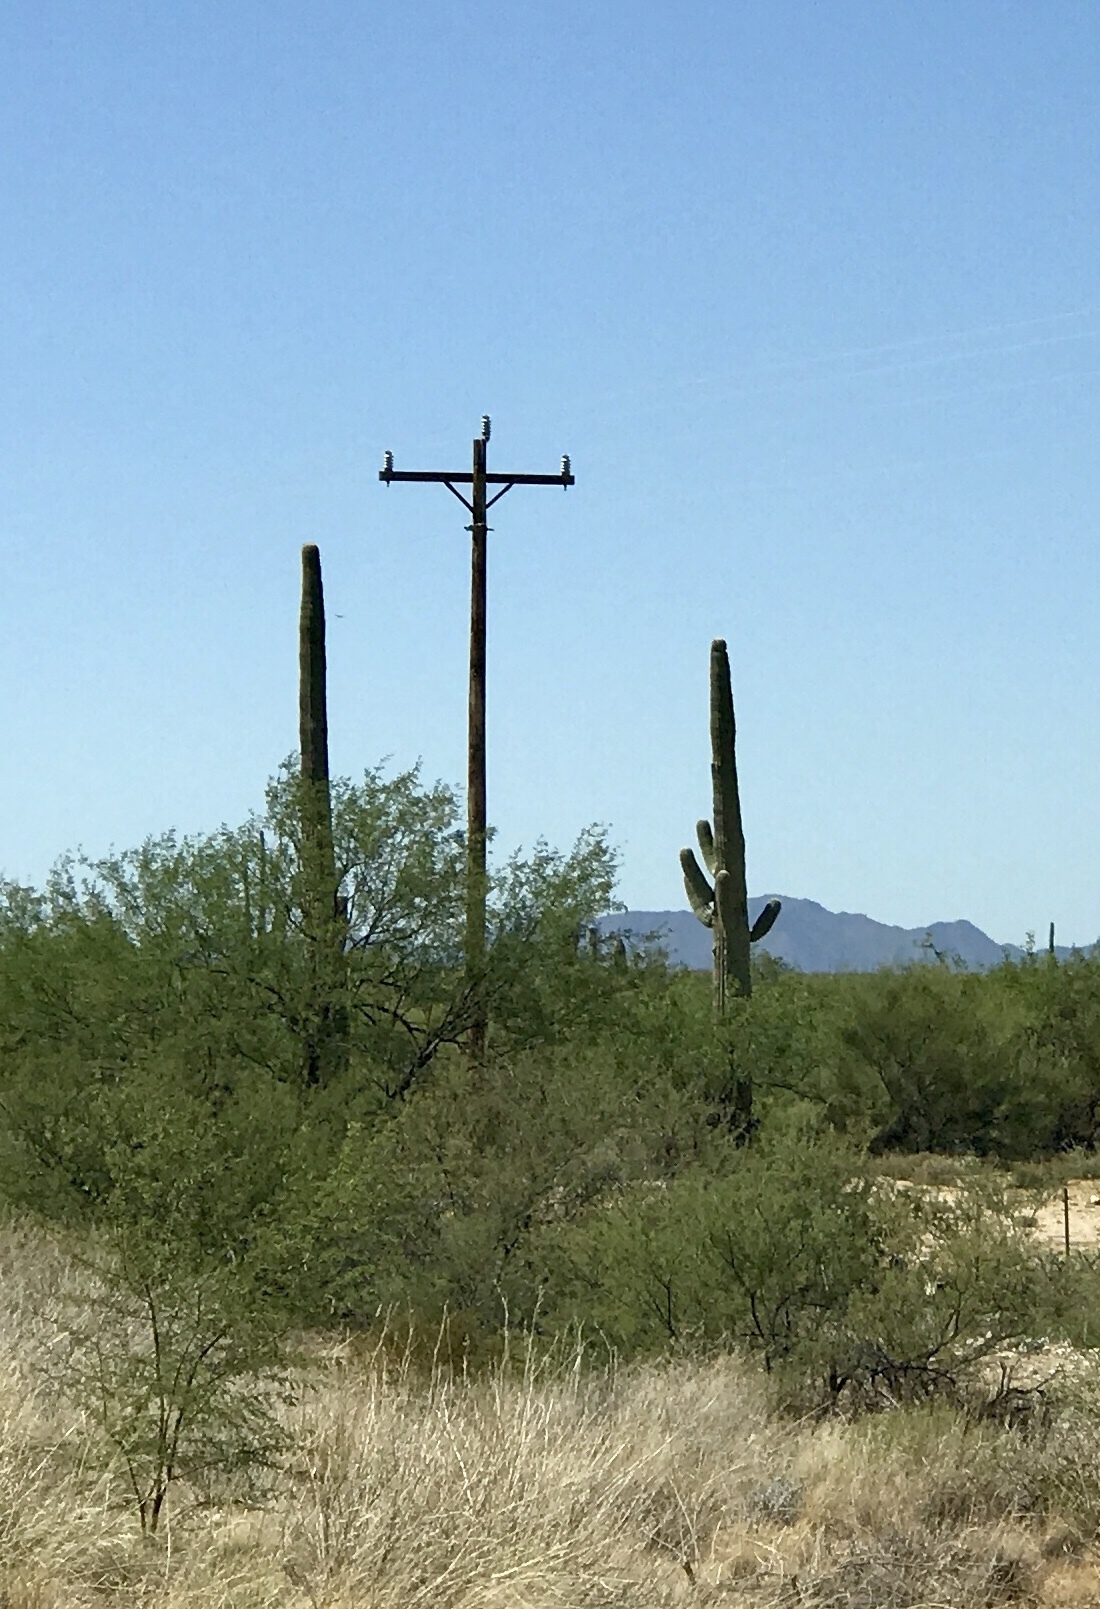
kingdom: Plantae
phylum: Tracheophyta
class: Magnoliopsida
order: Caryophyllales
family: Cactaceae
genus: Carnegiea
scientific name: Carnegiea gigantea
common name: Saguaro
